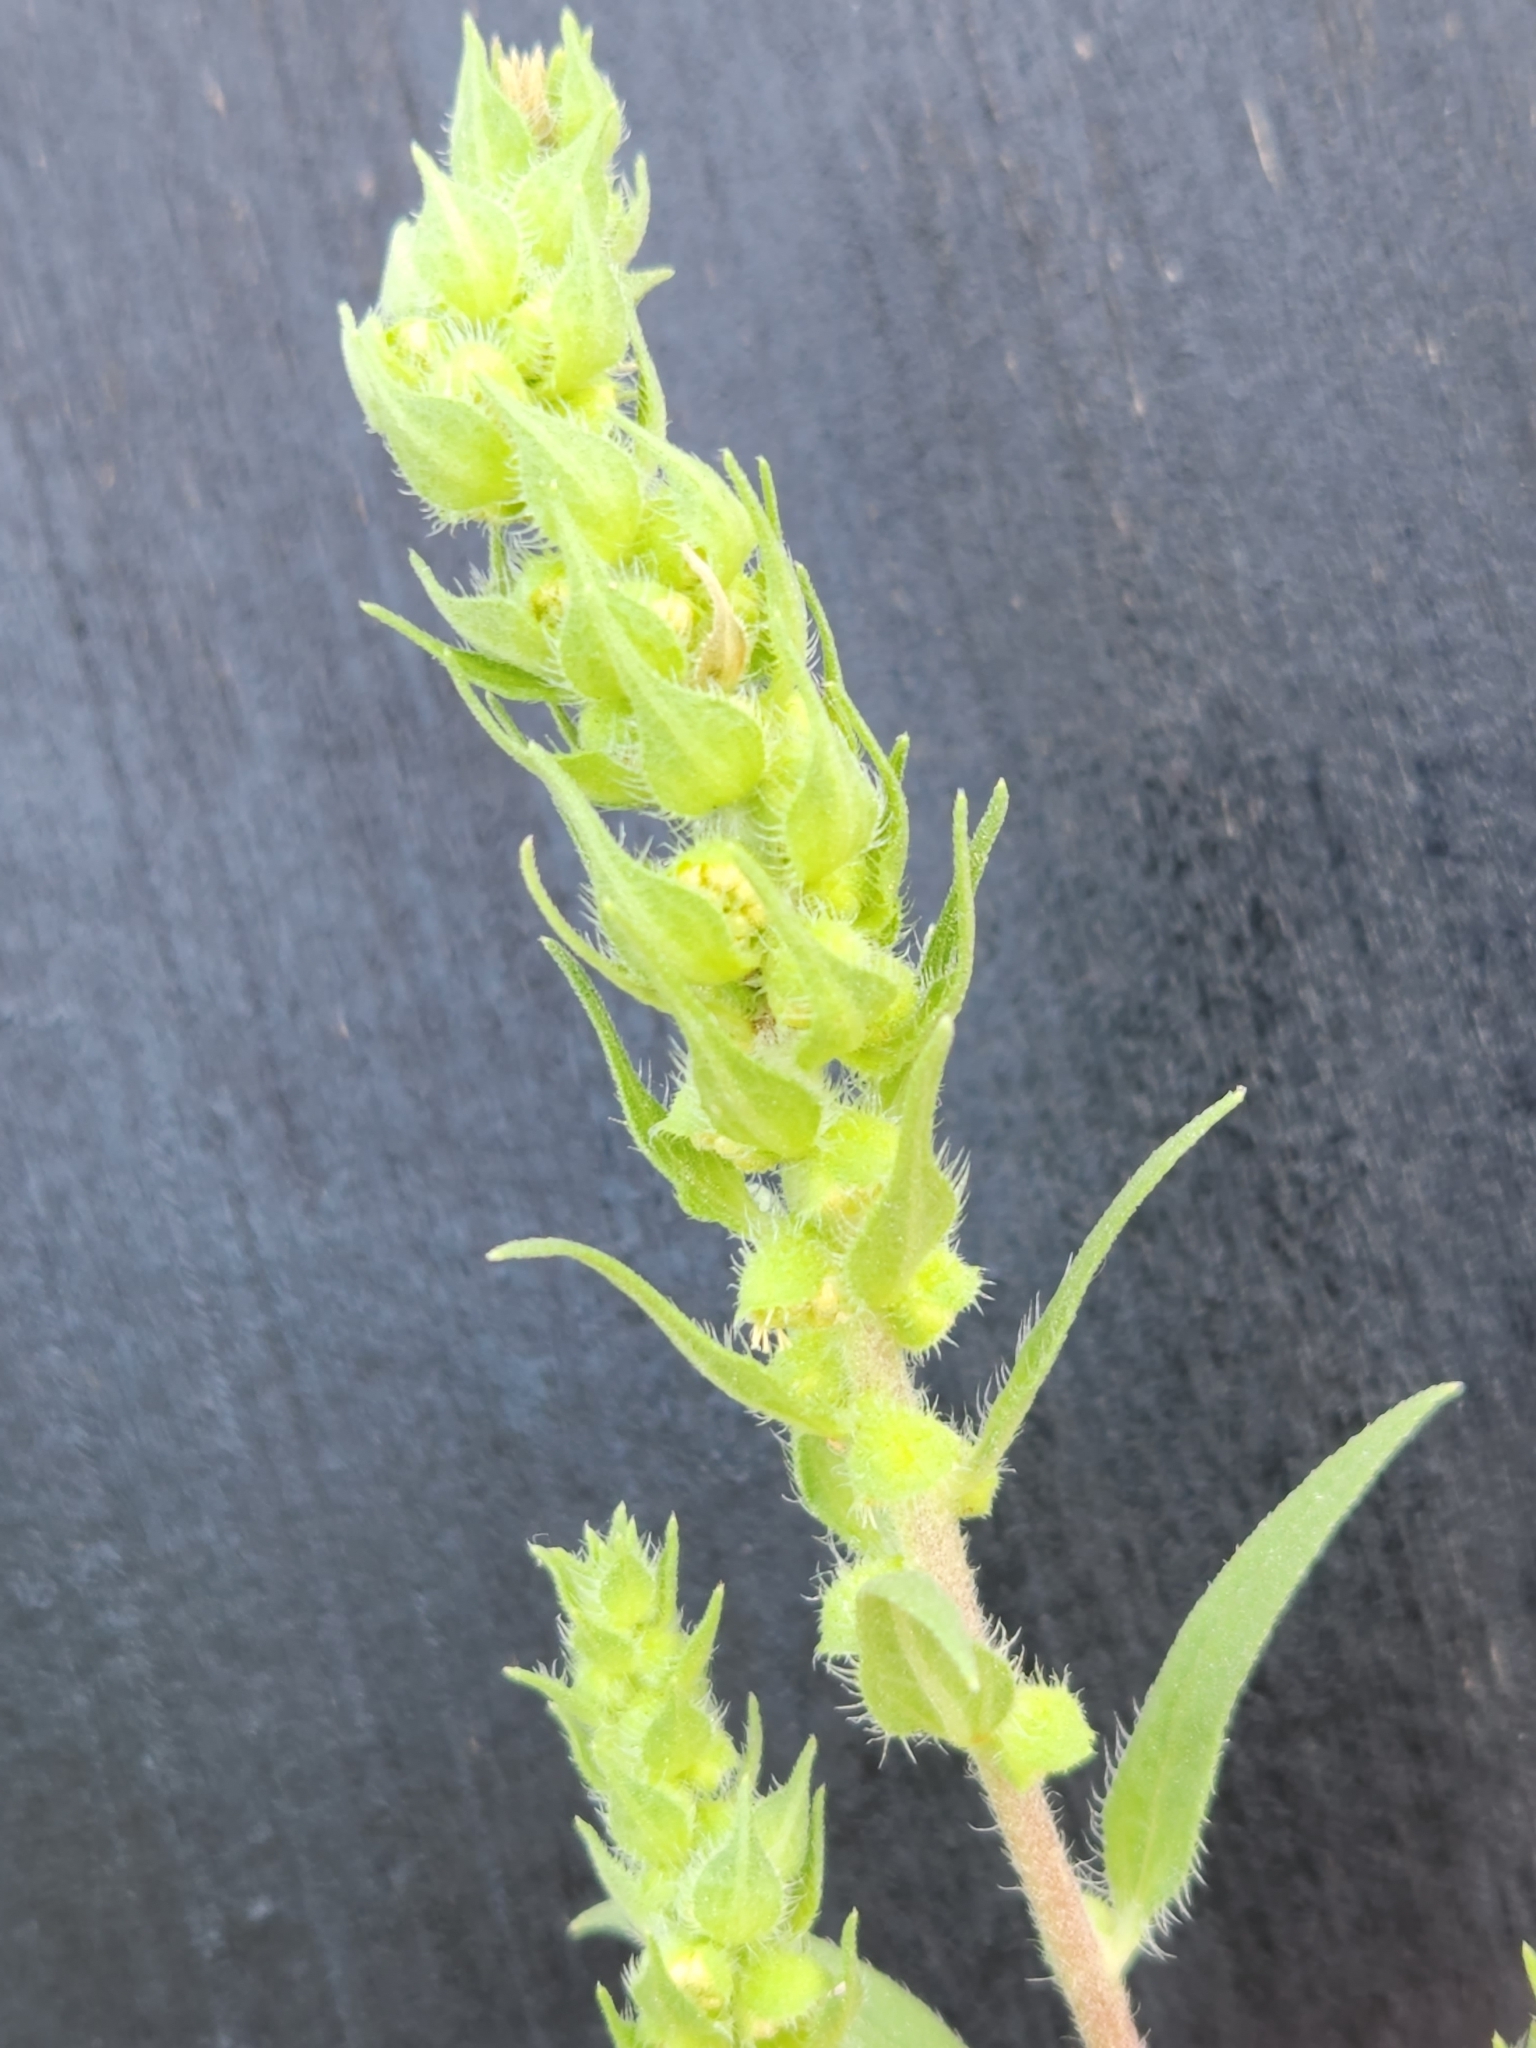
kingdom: Plantae
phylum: Tracheophyta
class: Magnoliopsida
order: Asterales
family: Asteraceae
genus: Iva
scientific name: Iva annua
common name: Marsh-elder
